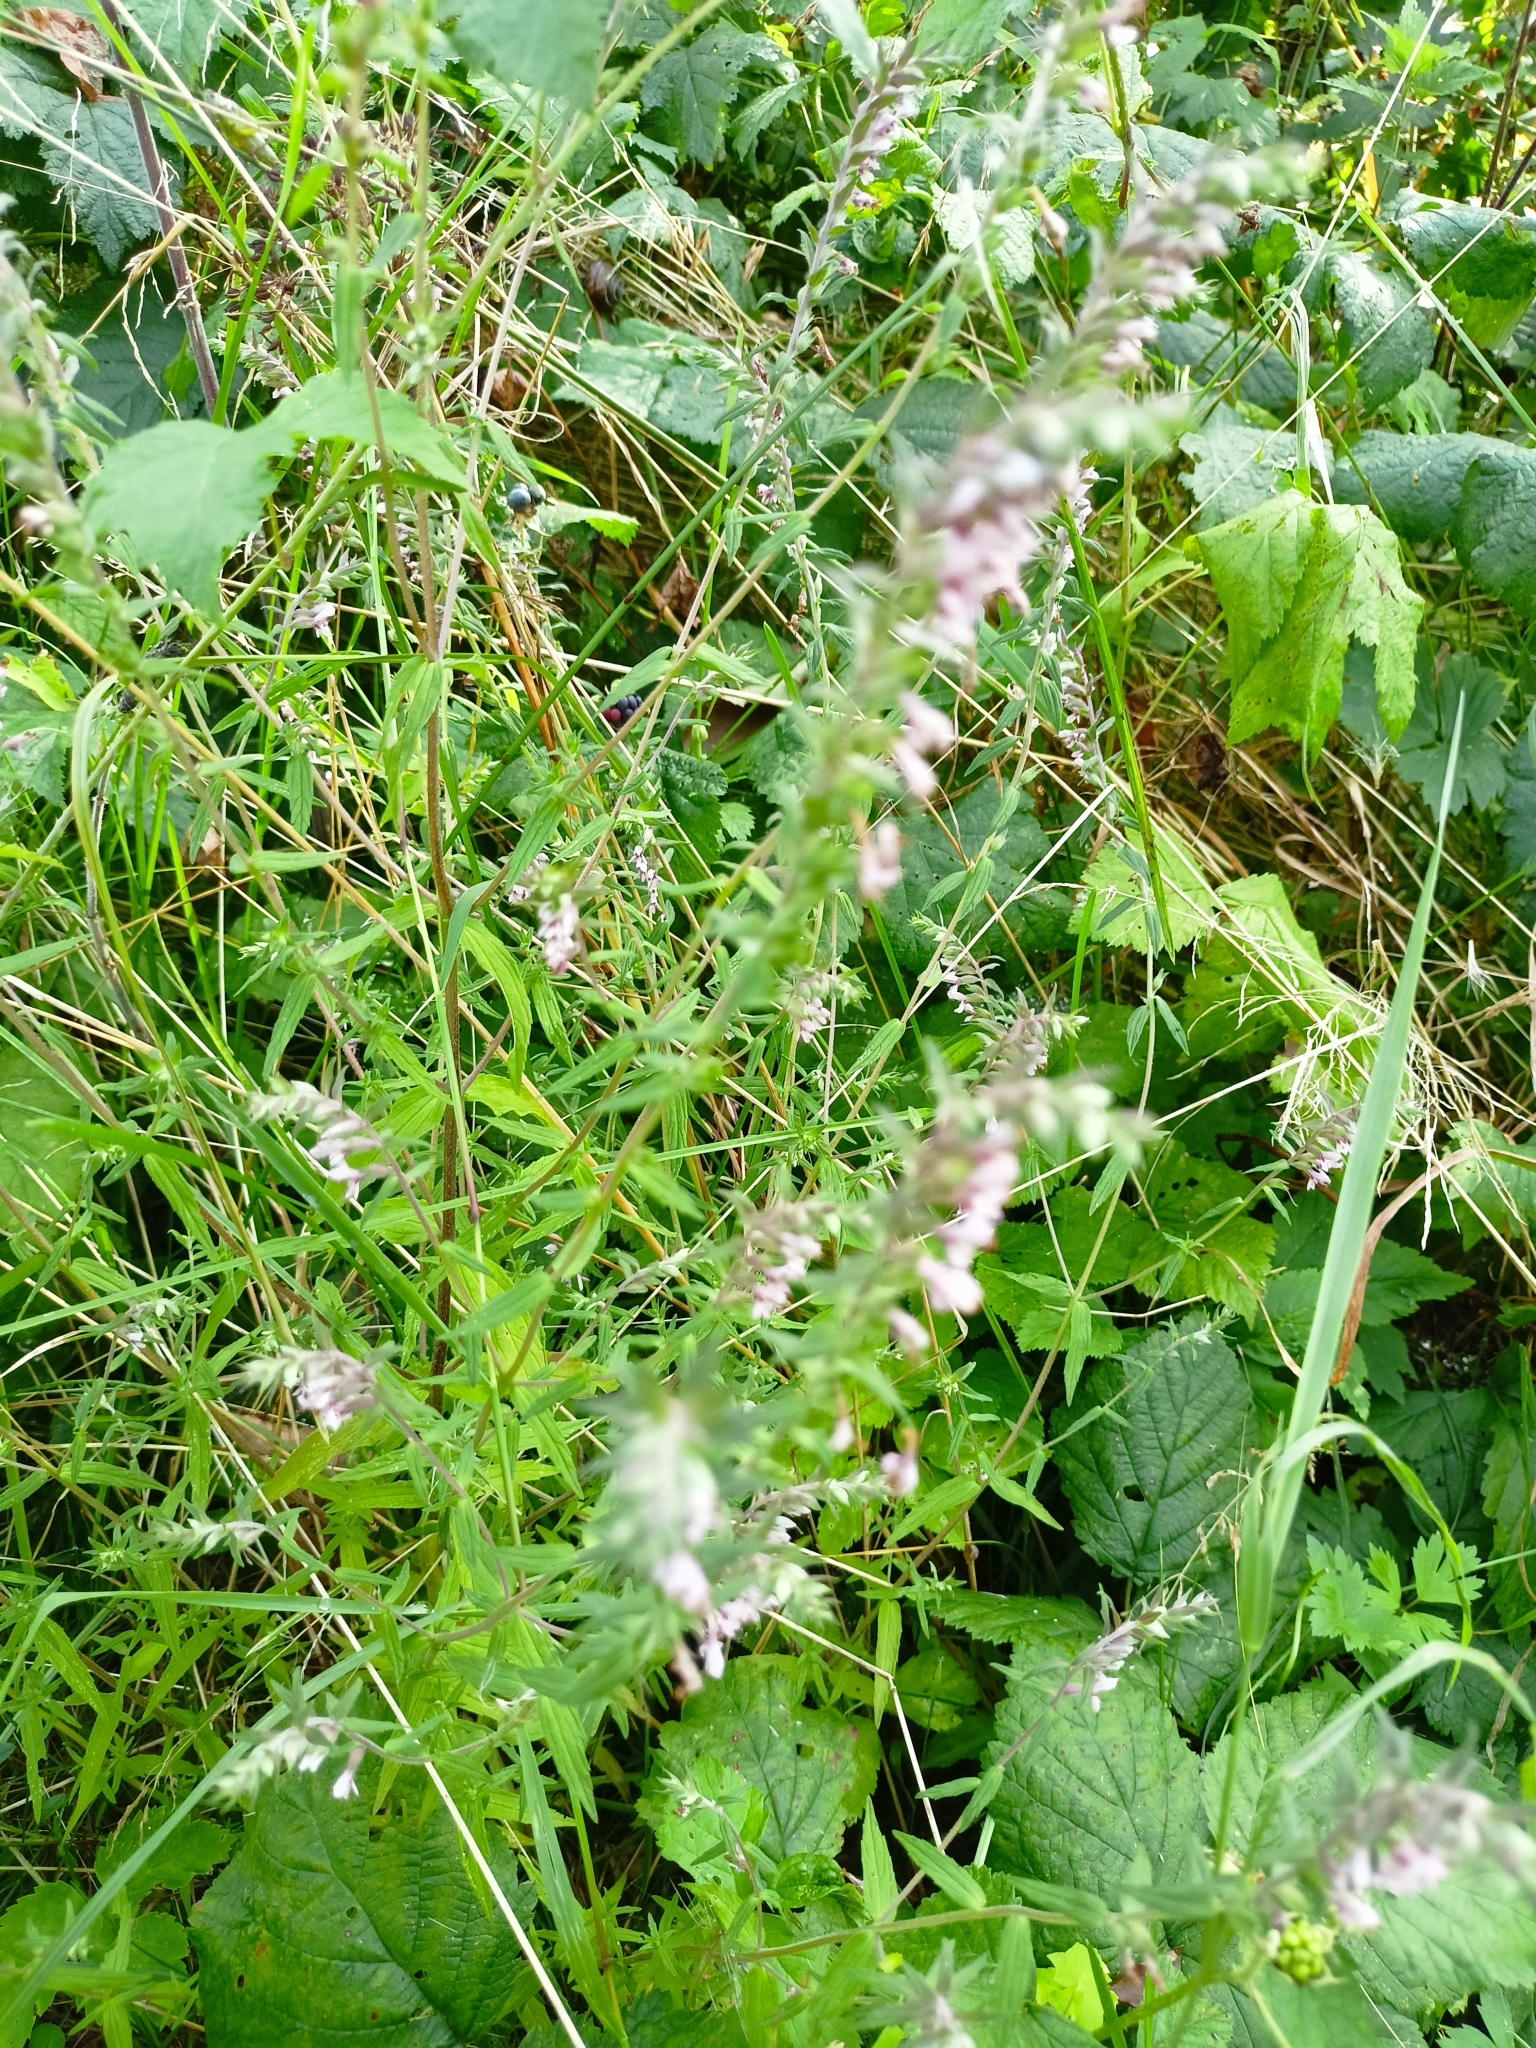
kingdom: Plantae
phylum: Tracheophyta
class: Magnoliopsida
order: Lamiales
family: Orobanchaceae
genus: Odontites
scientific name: Odontites vulgaris
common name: Broomrape
